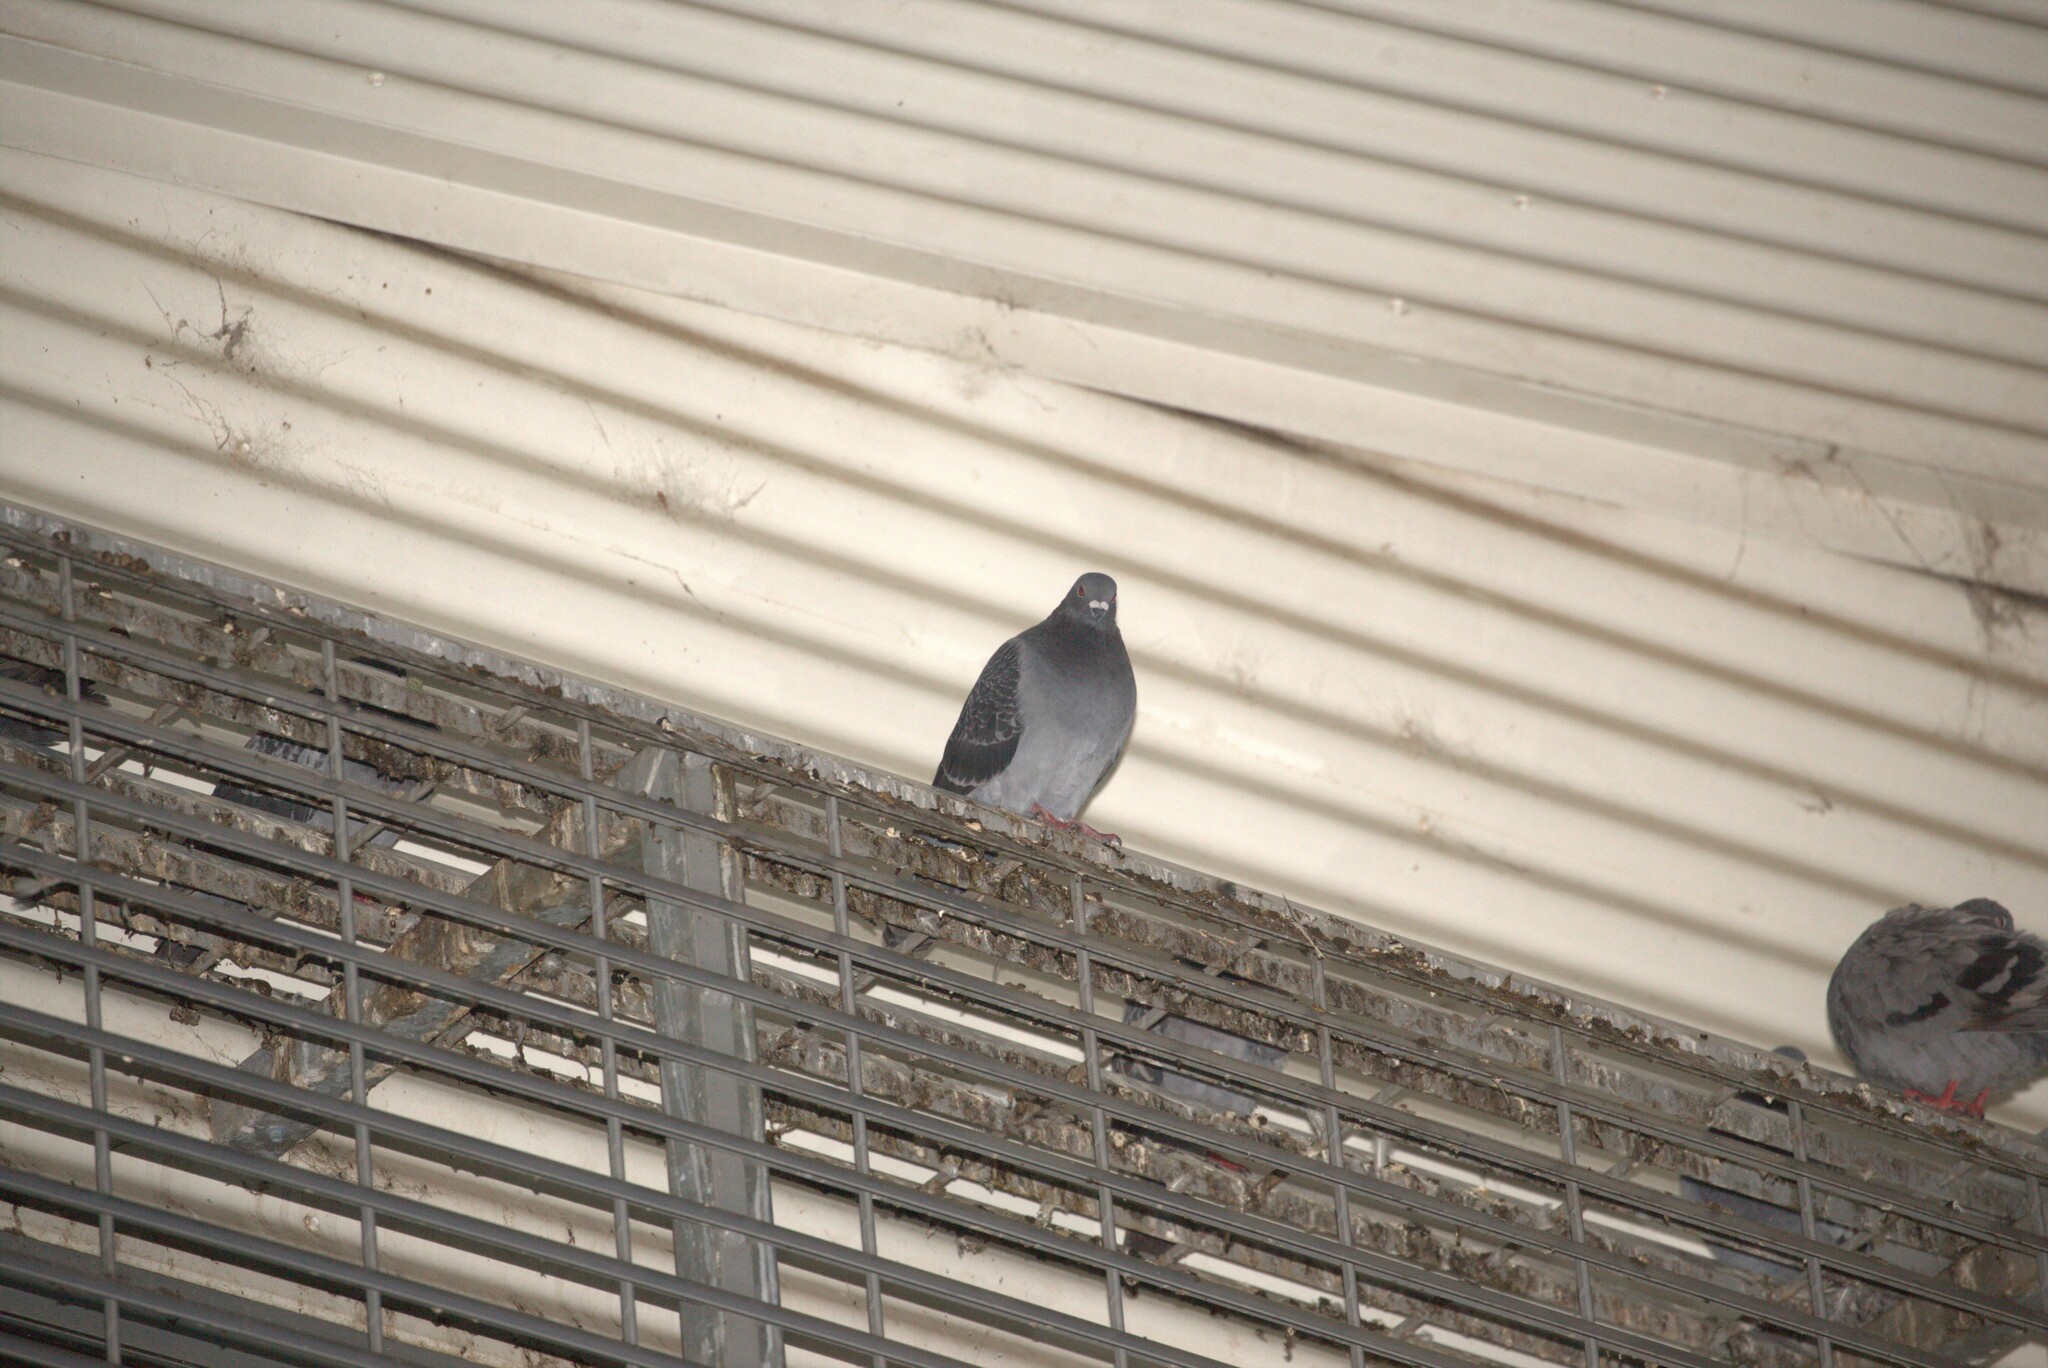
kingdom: Animalia
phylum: Chordata
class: Aves
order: Columbiformes
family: Columbidae
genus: Columba
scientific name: Columba livia
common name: Rock pigeon
